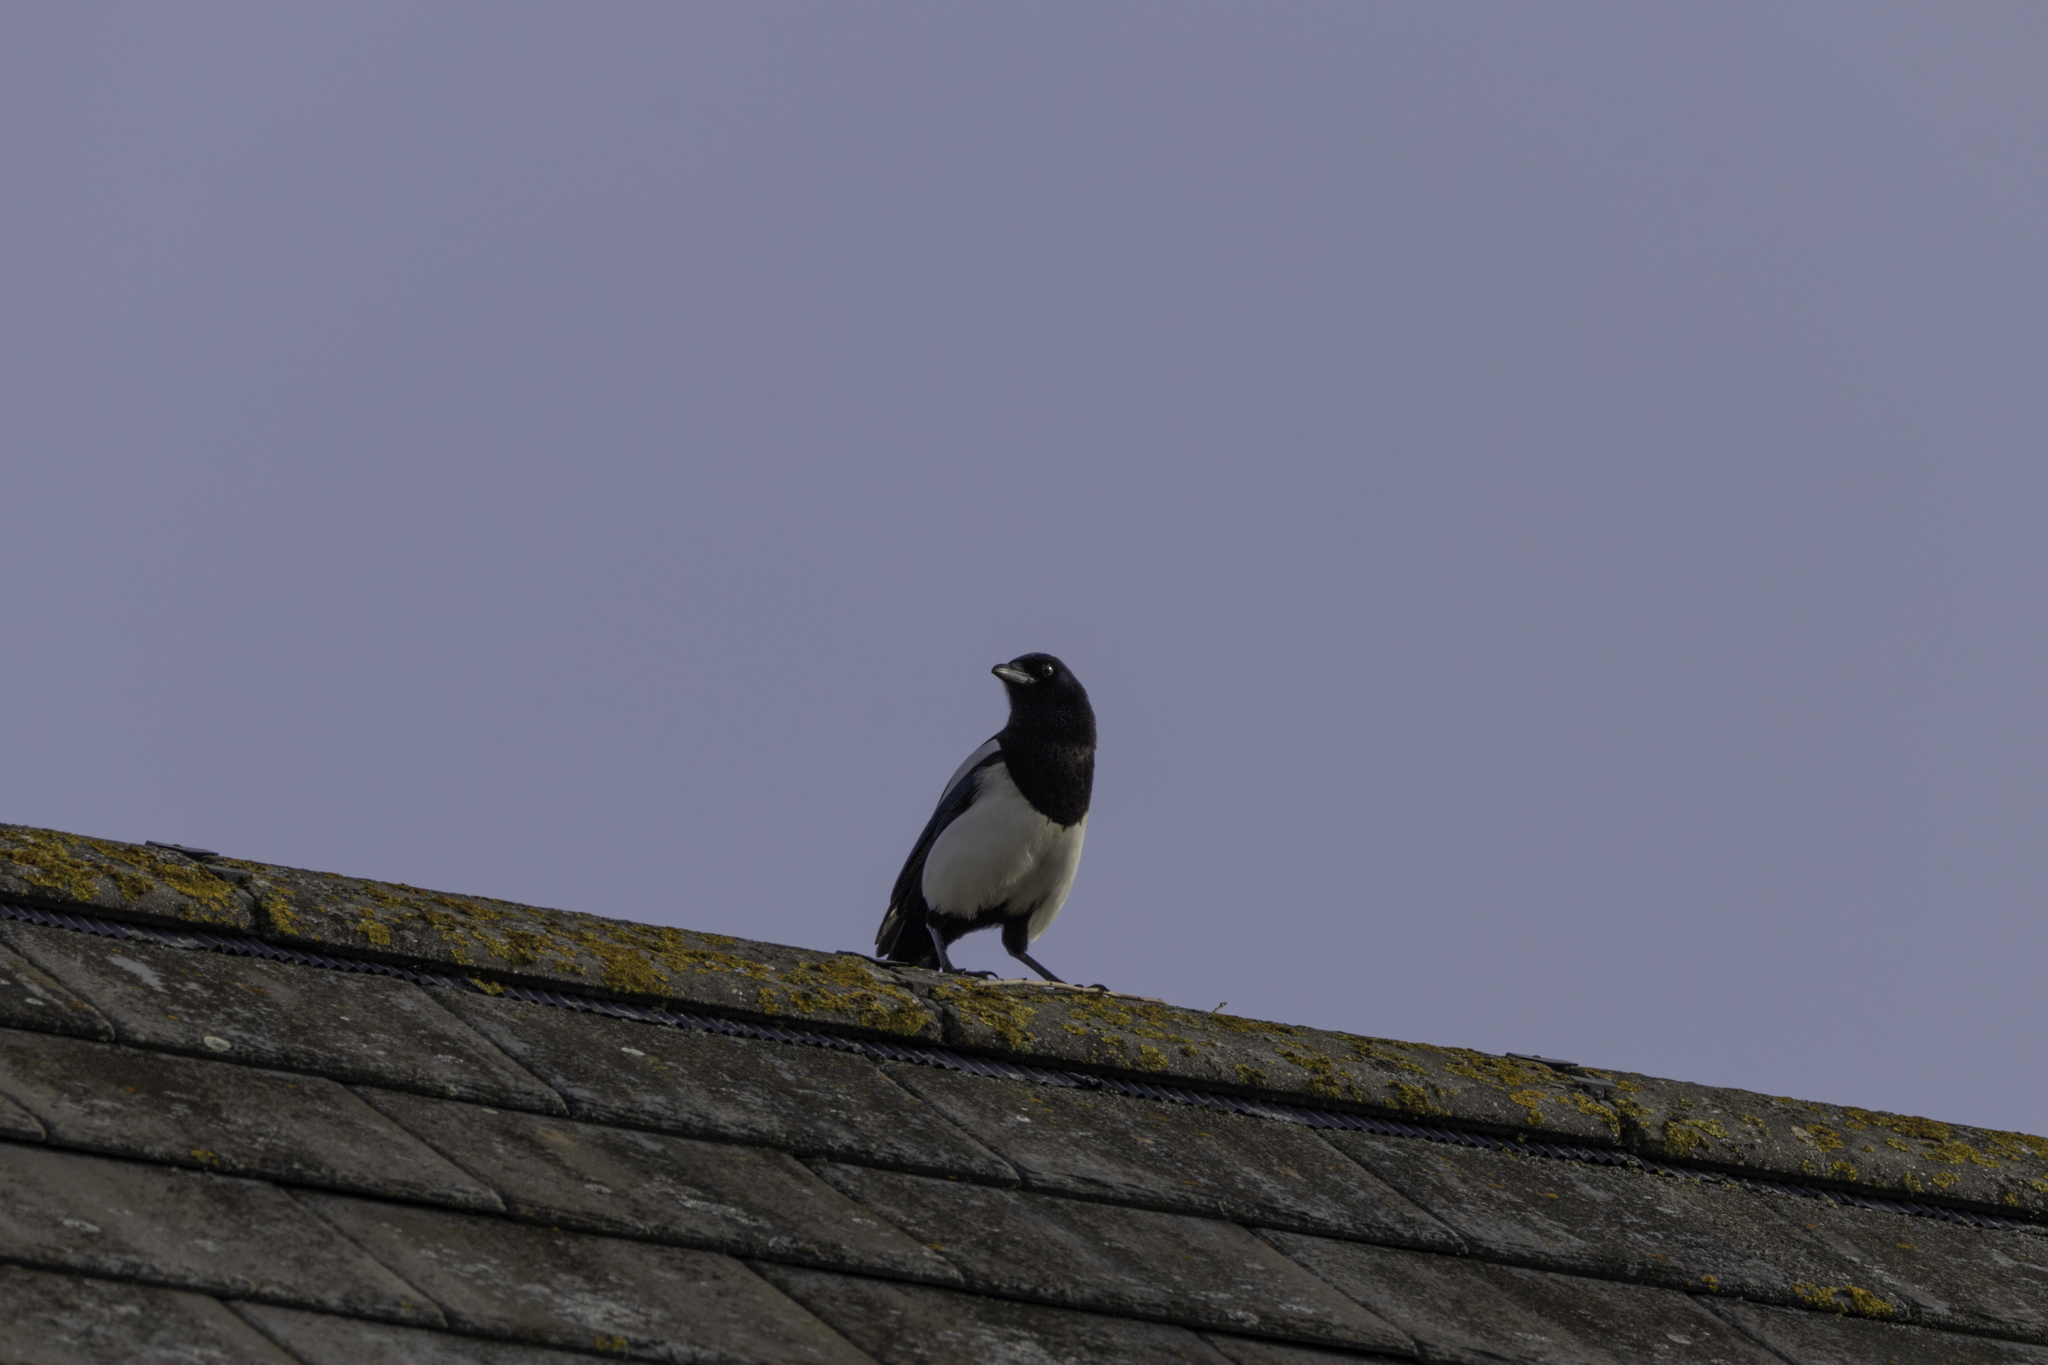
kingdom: Animalia
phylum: Chordata
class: Aves
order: Passeriformes
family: Corvidae
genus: Pica
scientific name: Pica pica
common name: Eurasian magpie
